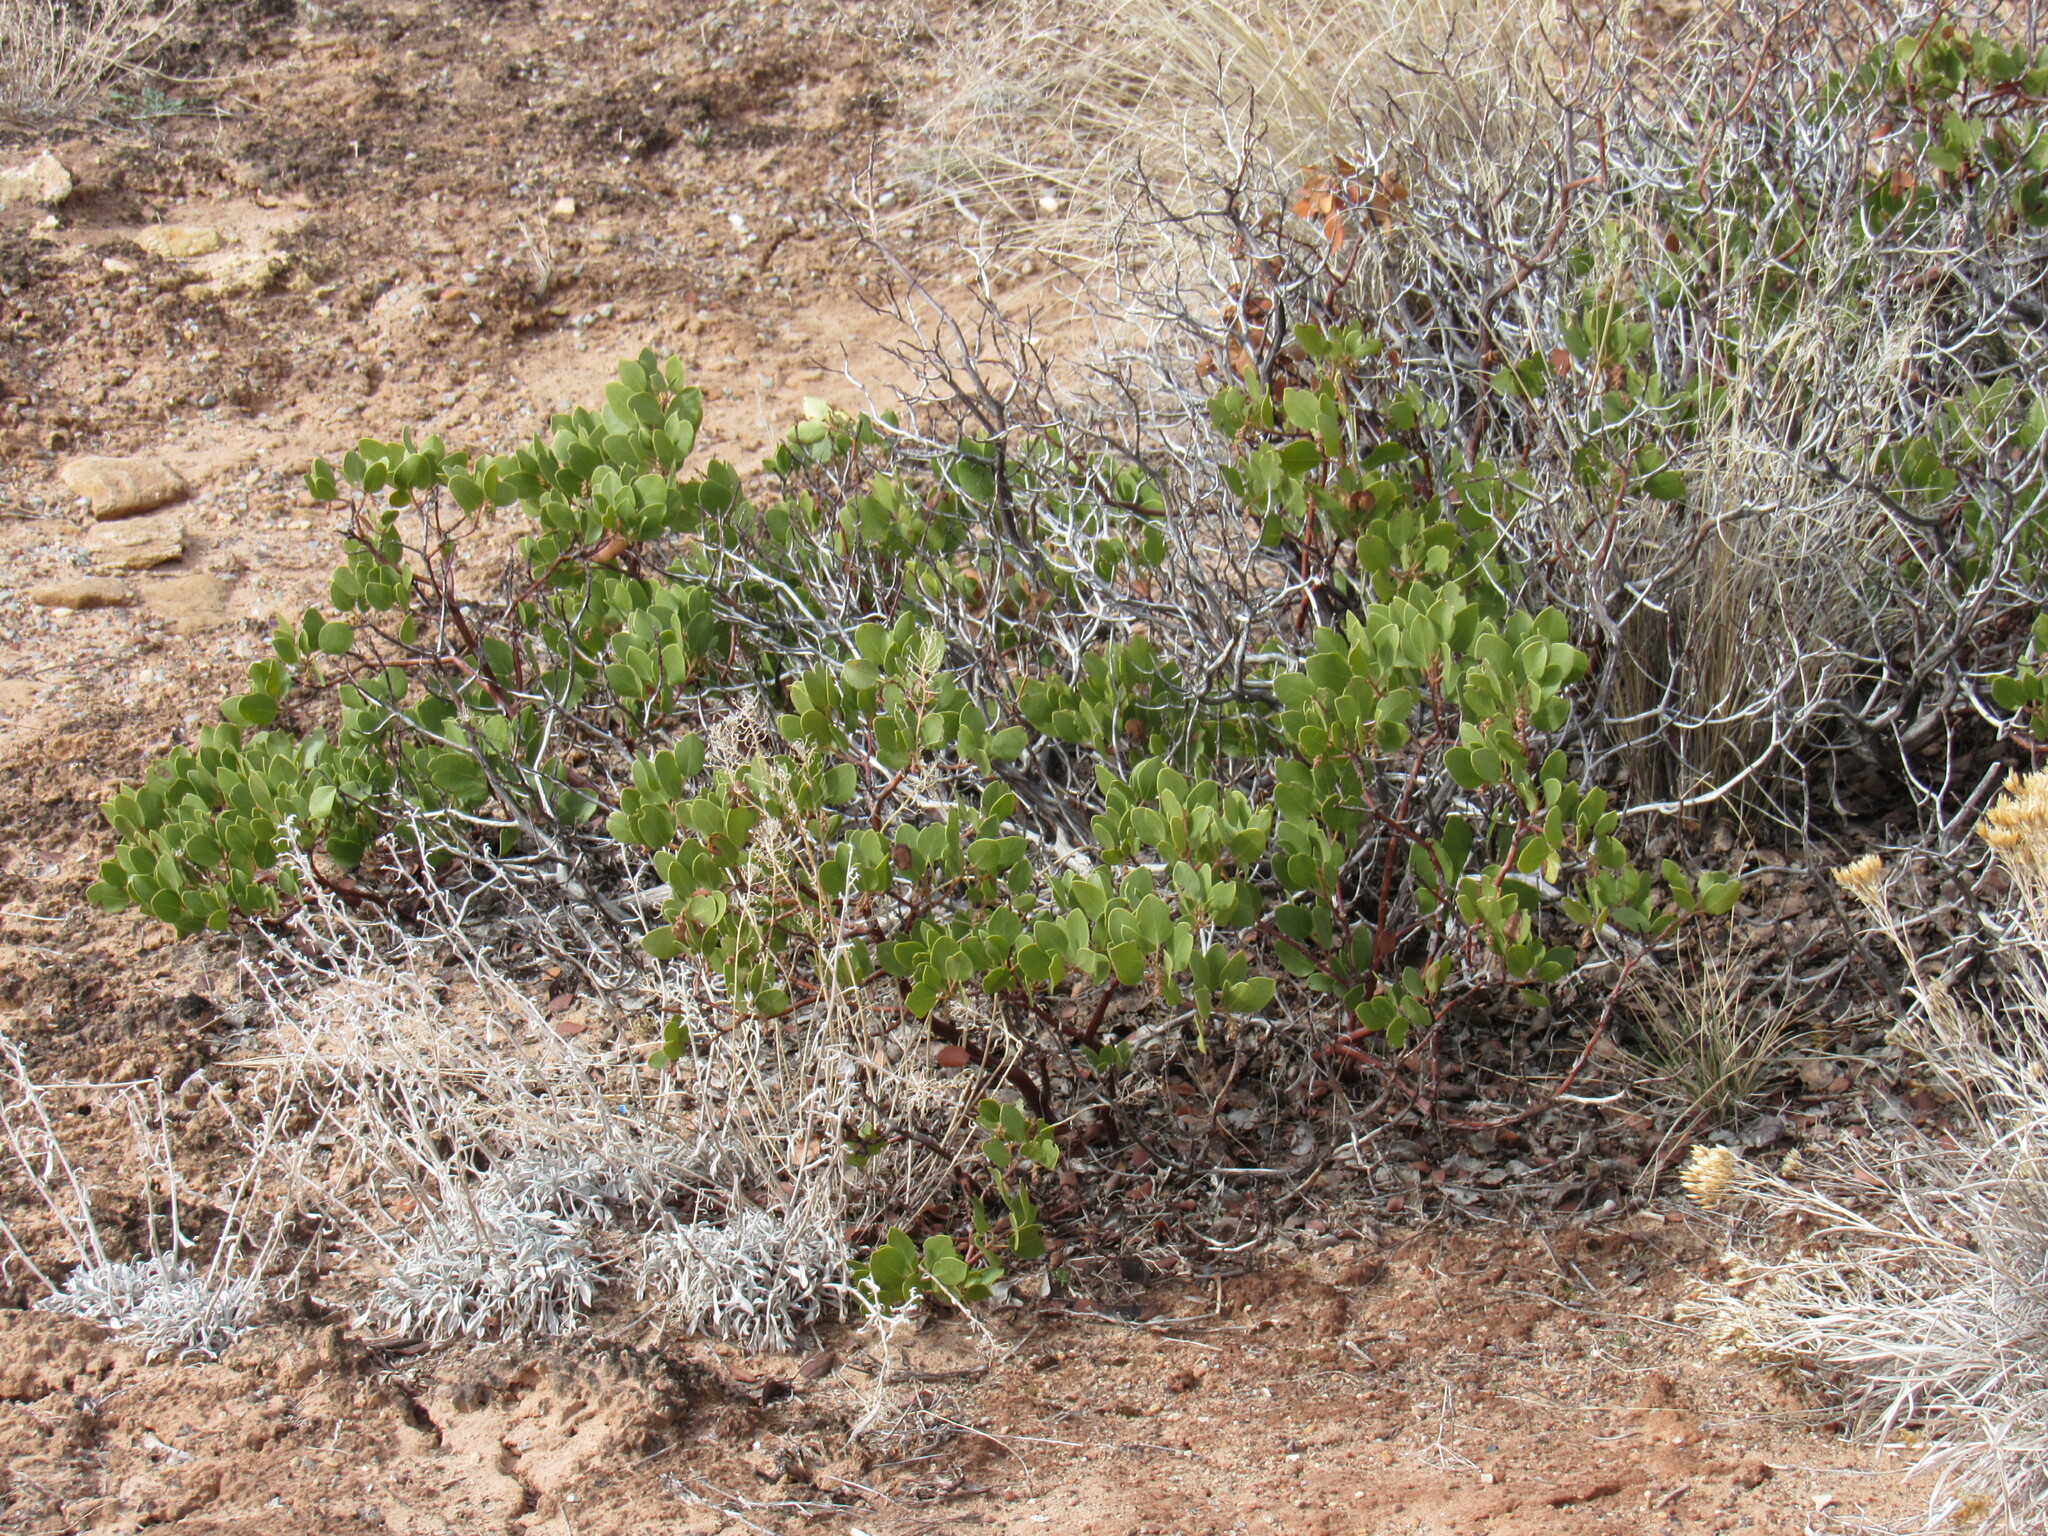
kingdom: Plantae
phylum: Tracheophyta
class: Magnoliopsida
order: Ericales
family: Ericaceae
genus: Arctostaphylos
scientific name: Arctostaphylos patula
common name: Green-leaf manzanita
